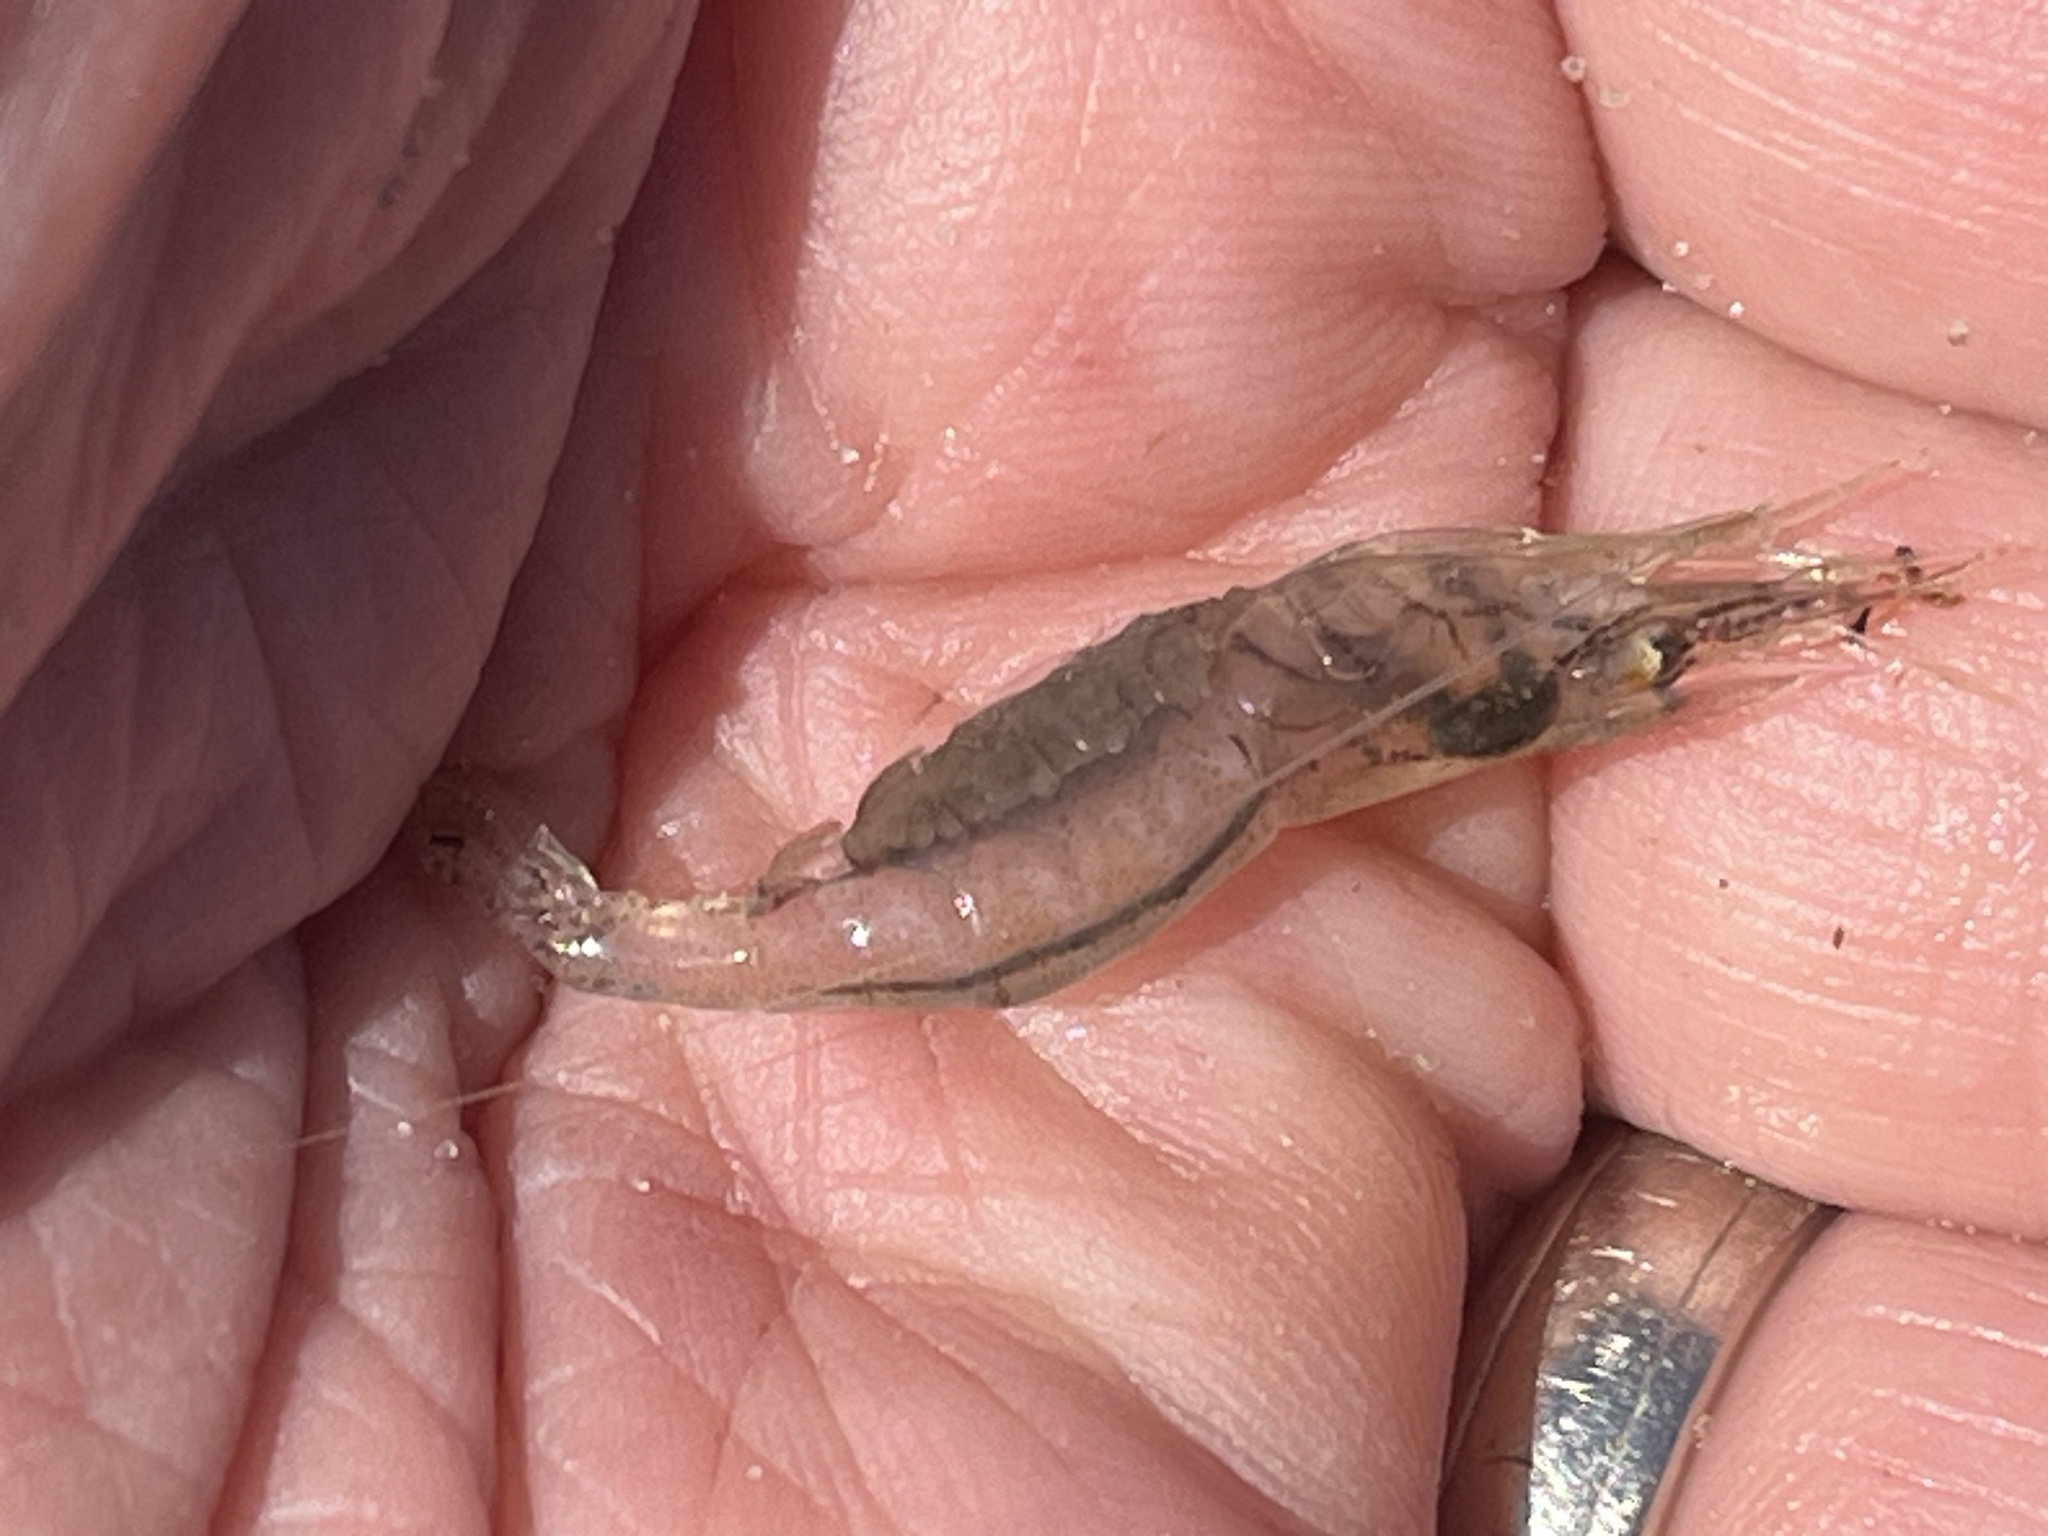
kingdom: Animalia
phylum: Arthropoda
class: Malacostraca
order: Decapoda
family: Palaemonidae
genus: Palaemon
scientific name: Palaemon paludosus
